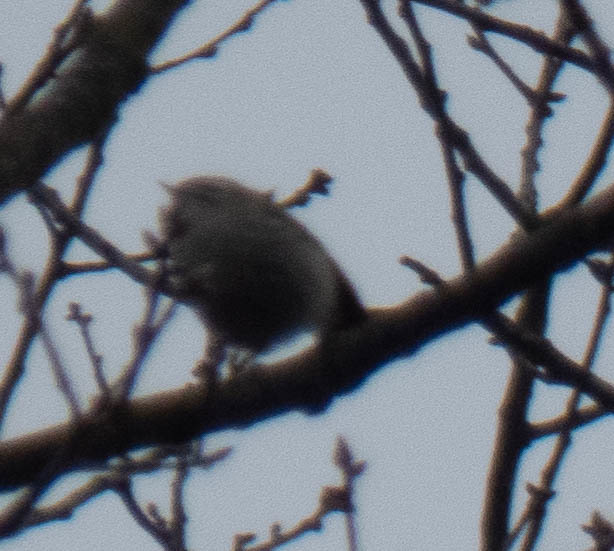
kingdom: Animalia
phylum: Chordata
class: Aves
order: Passeriformes
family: Regulidae
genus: Regulus
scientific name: Regulus satrapa
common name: Golden-crowned kinglet
